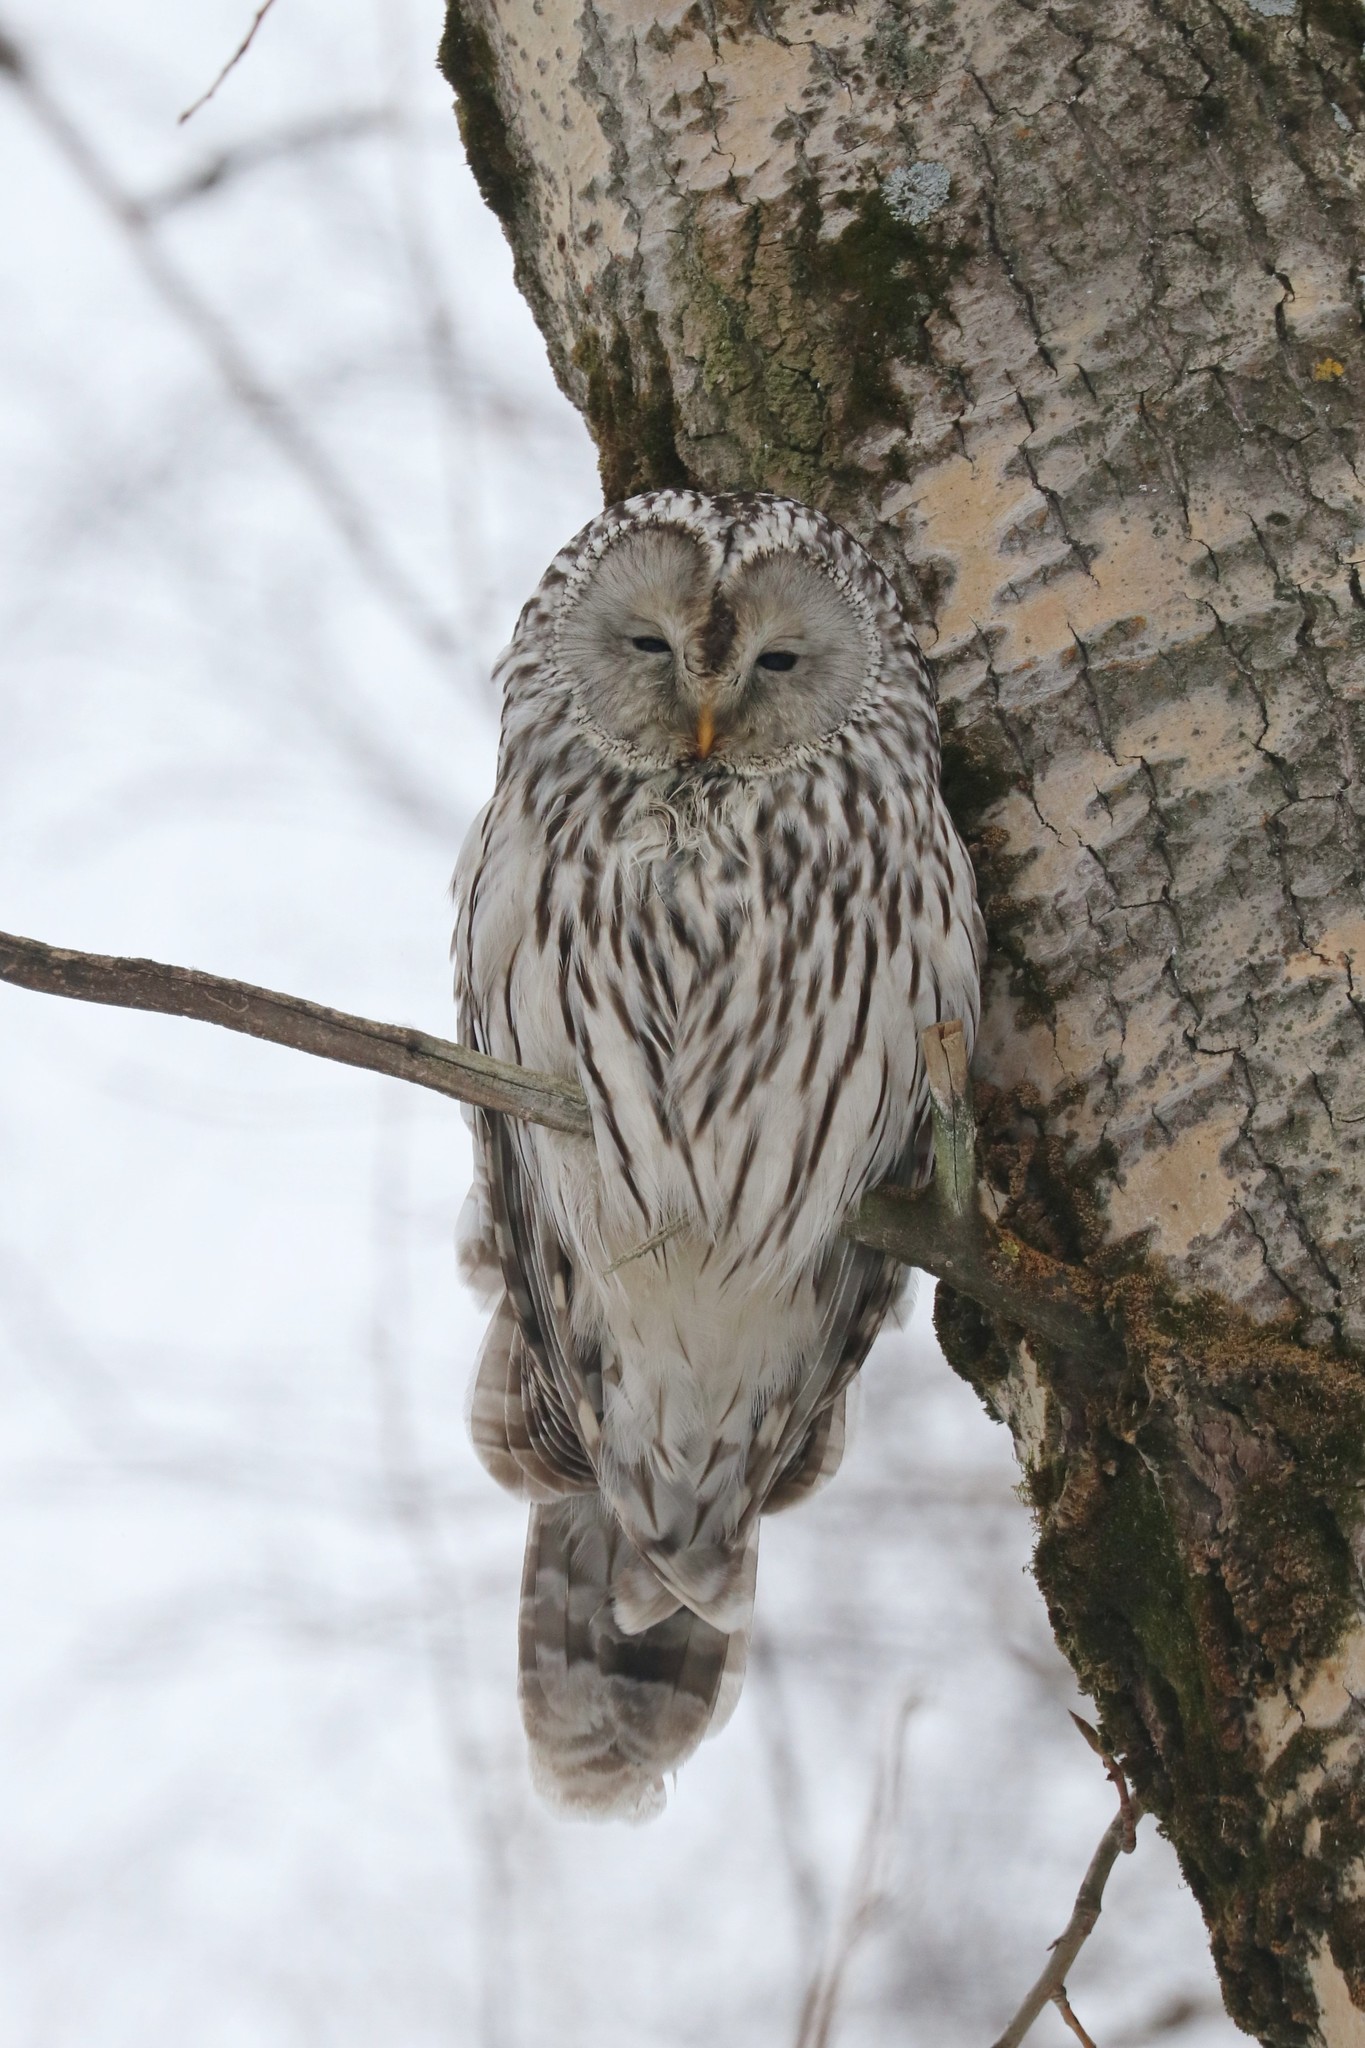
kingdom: Animalia
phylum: Chordata
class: Aves
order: Strigiformes
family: Strigidae
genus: Strix
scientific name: Strix uralensis
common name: Ural owl
